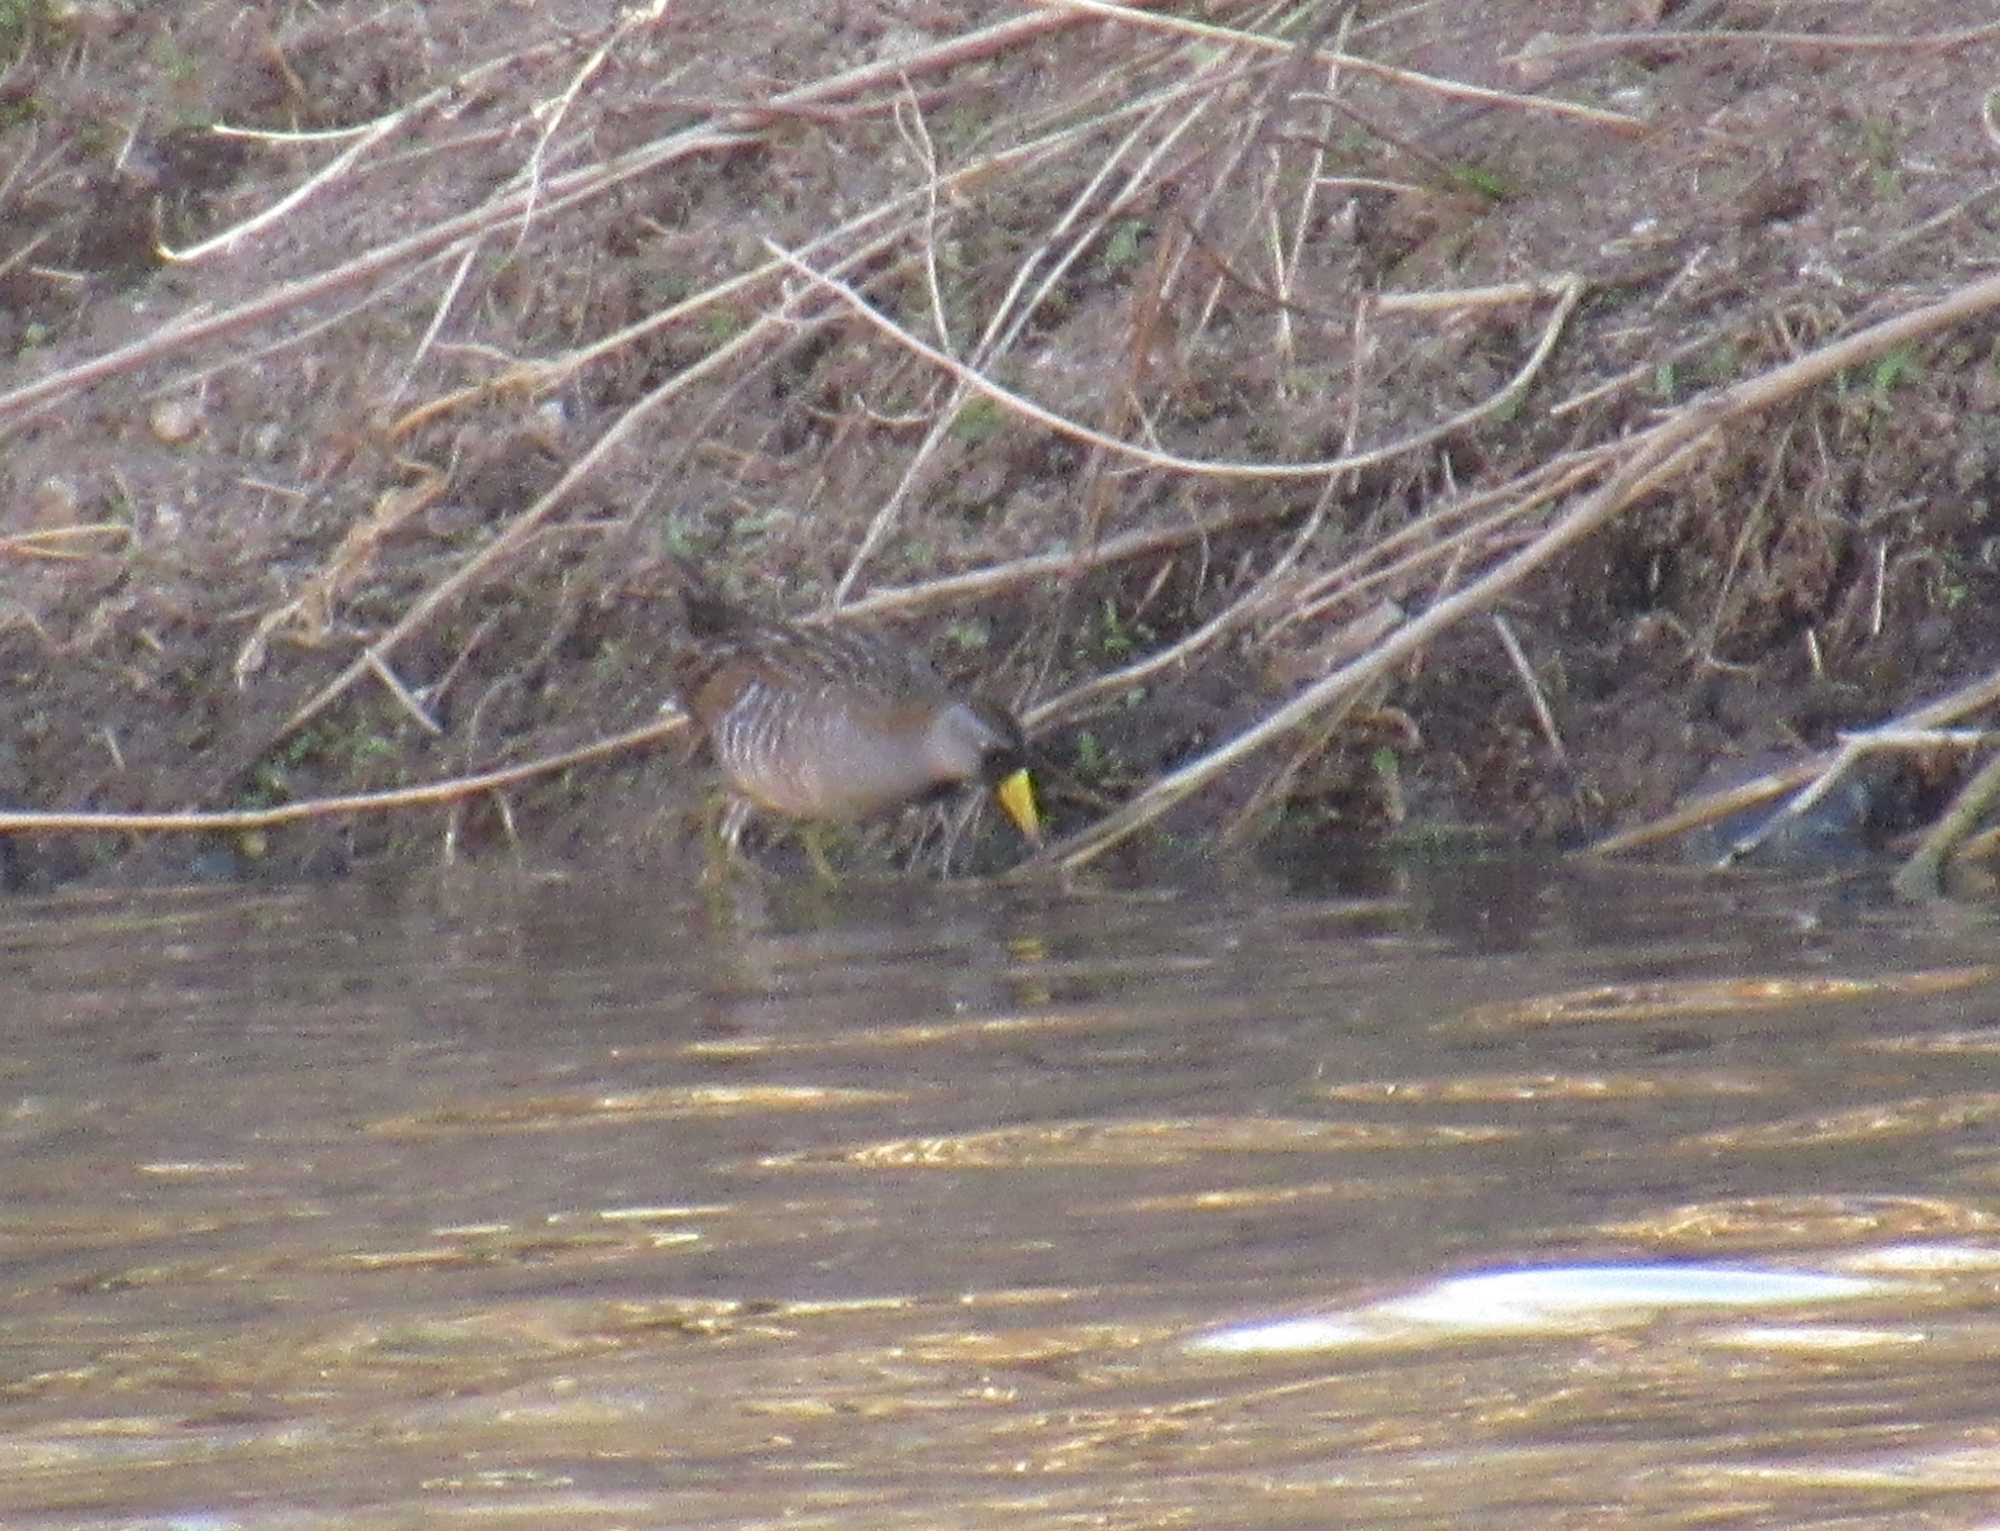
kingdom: Animalia
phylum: Chordata
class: Aves
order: Gruiformes
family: Rallidae
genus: Porzana
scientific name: Porzana carolina
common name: Sora
